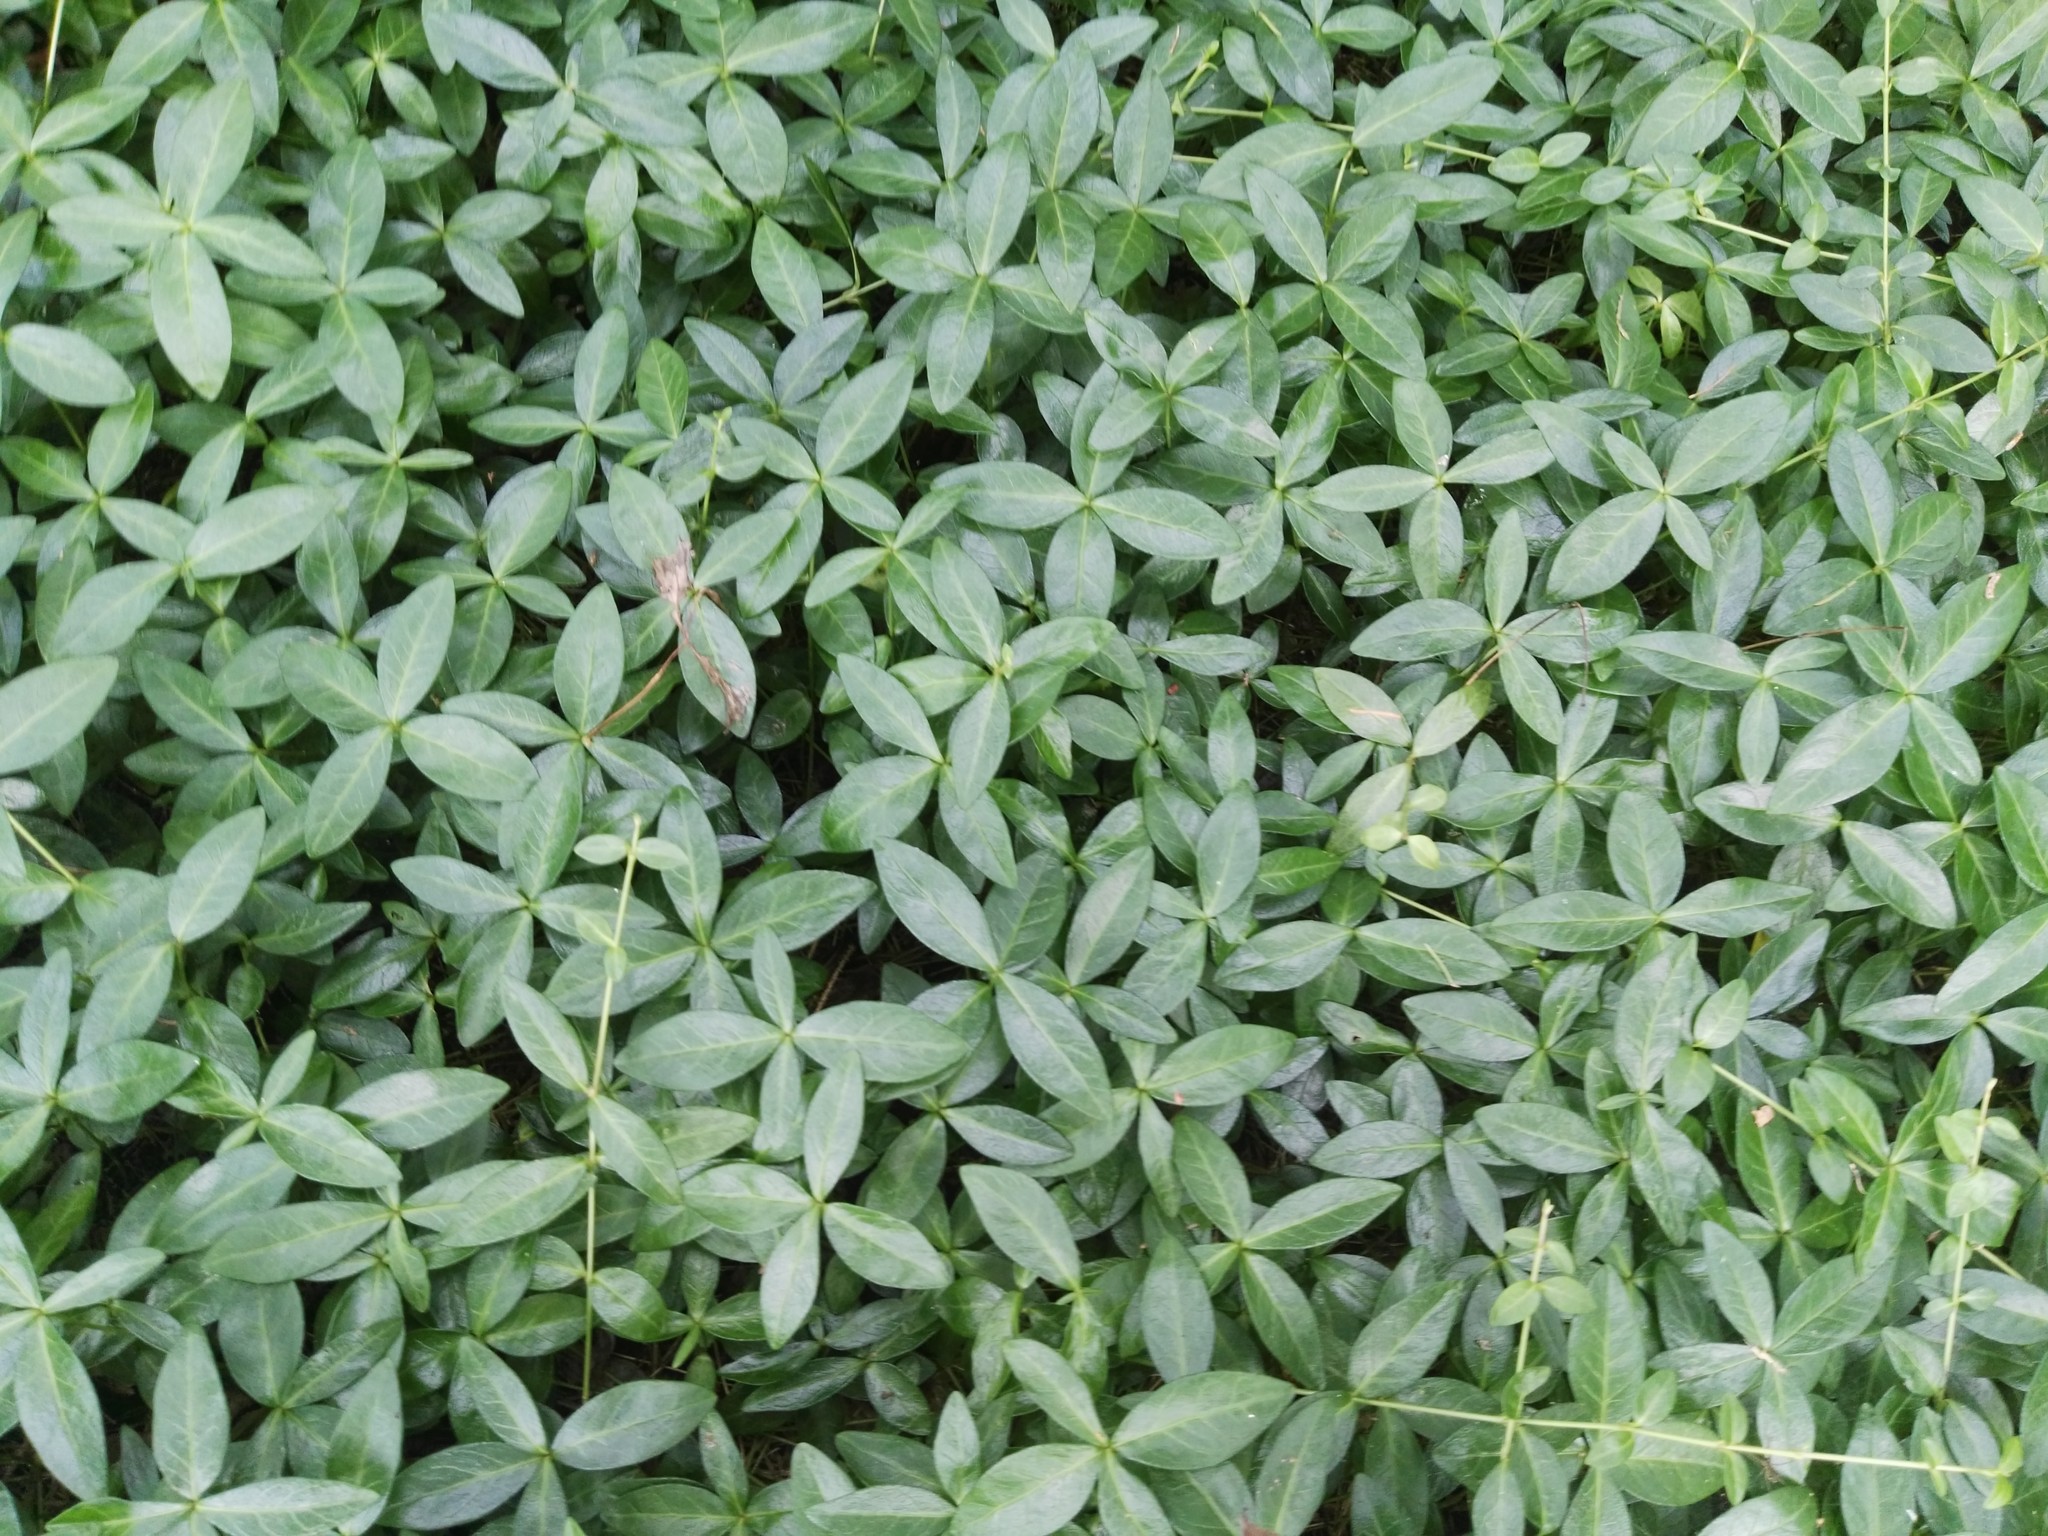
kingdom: Plantae
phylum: Tracheophyta
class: Magnoliopsida
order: Gentianales
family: Apocynaceae
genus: Vinca
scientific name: Vinca minor
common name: Lesser periwinkle
